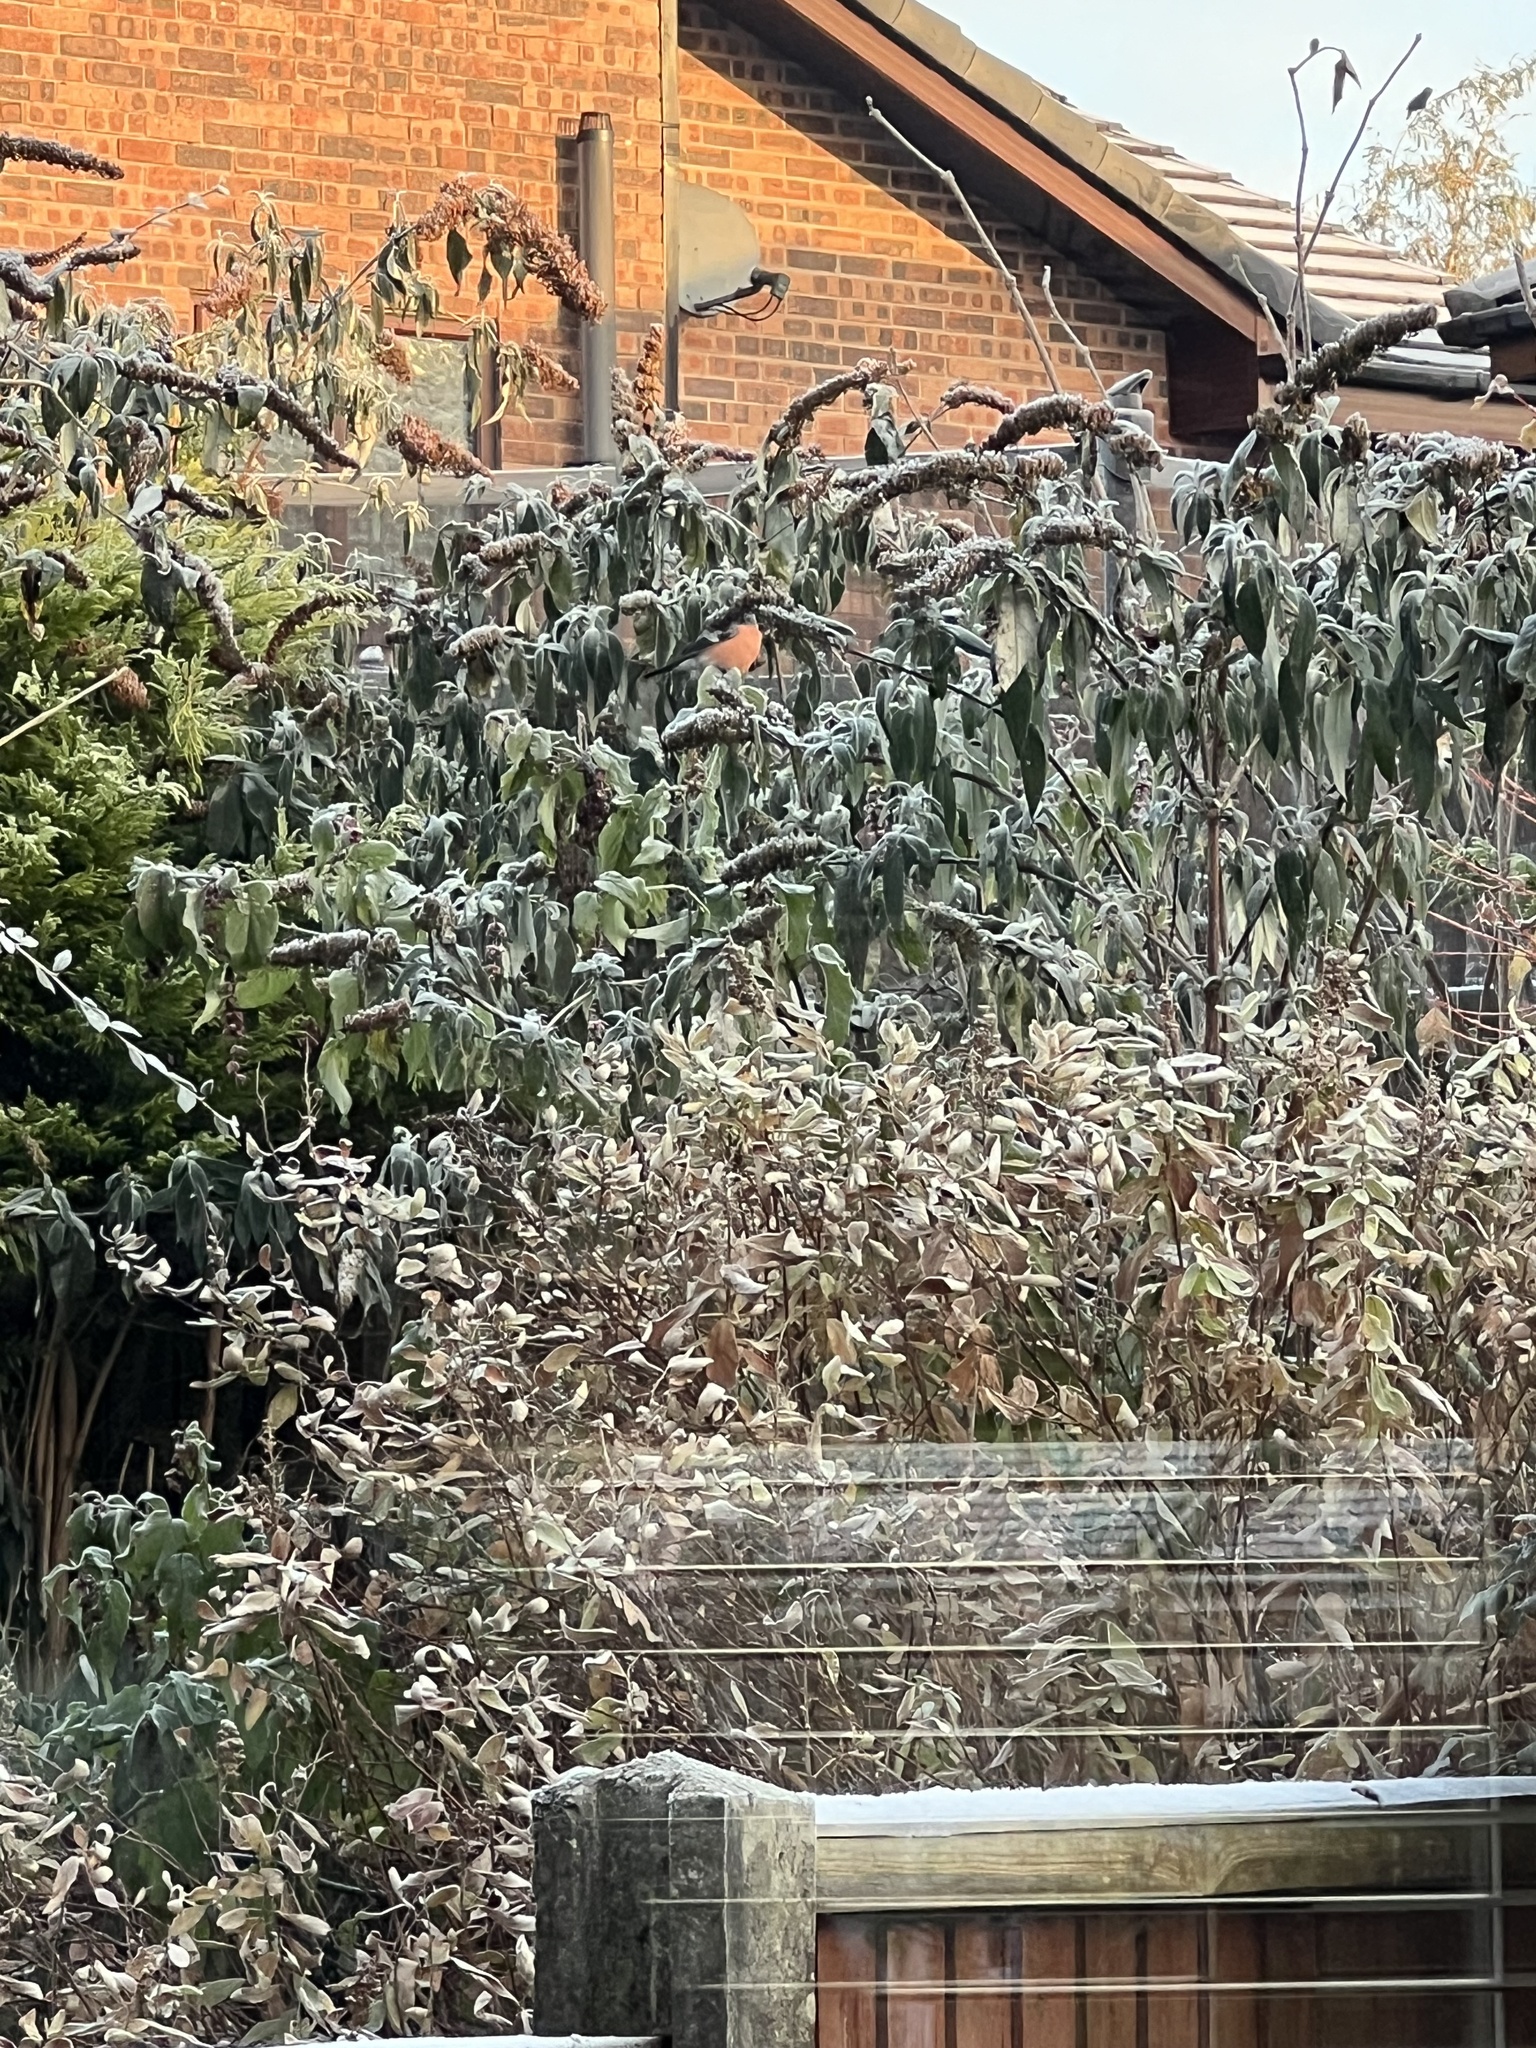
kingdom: Animalia
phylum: Chordata
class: Aves
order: Passeriformes
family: Fringillidae
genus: Pyrrhula
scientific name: Pyrrhula pyrrhula
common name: Eurasian bullfinch
